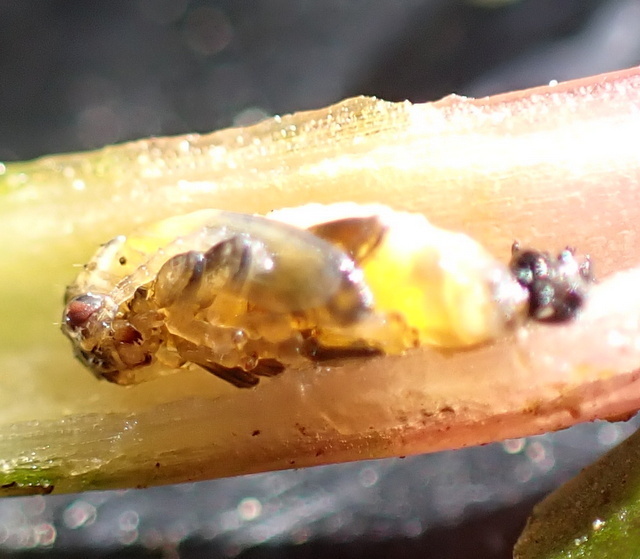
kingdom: Animalia
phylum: Arthropoda
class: Insecta
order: Coleoptera
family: Chrysomelidae
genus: Agasicles
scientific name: Agasicles hygrophila
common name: Alligatorweed flea beetle
